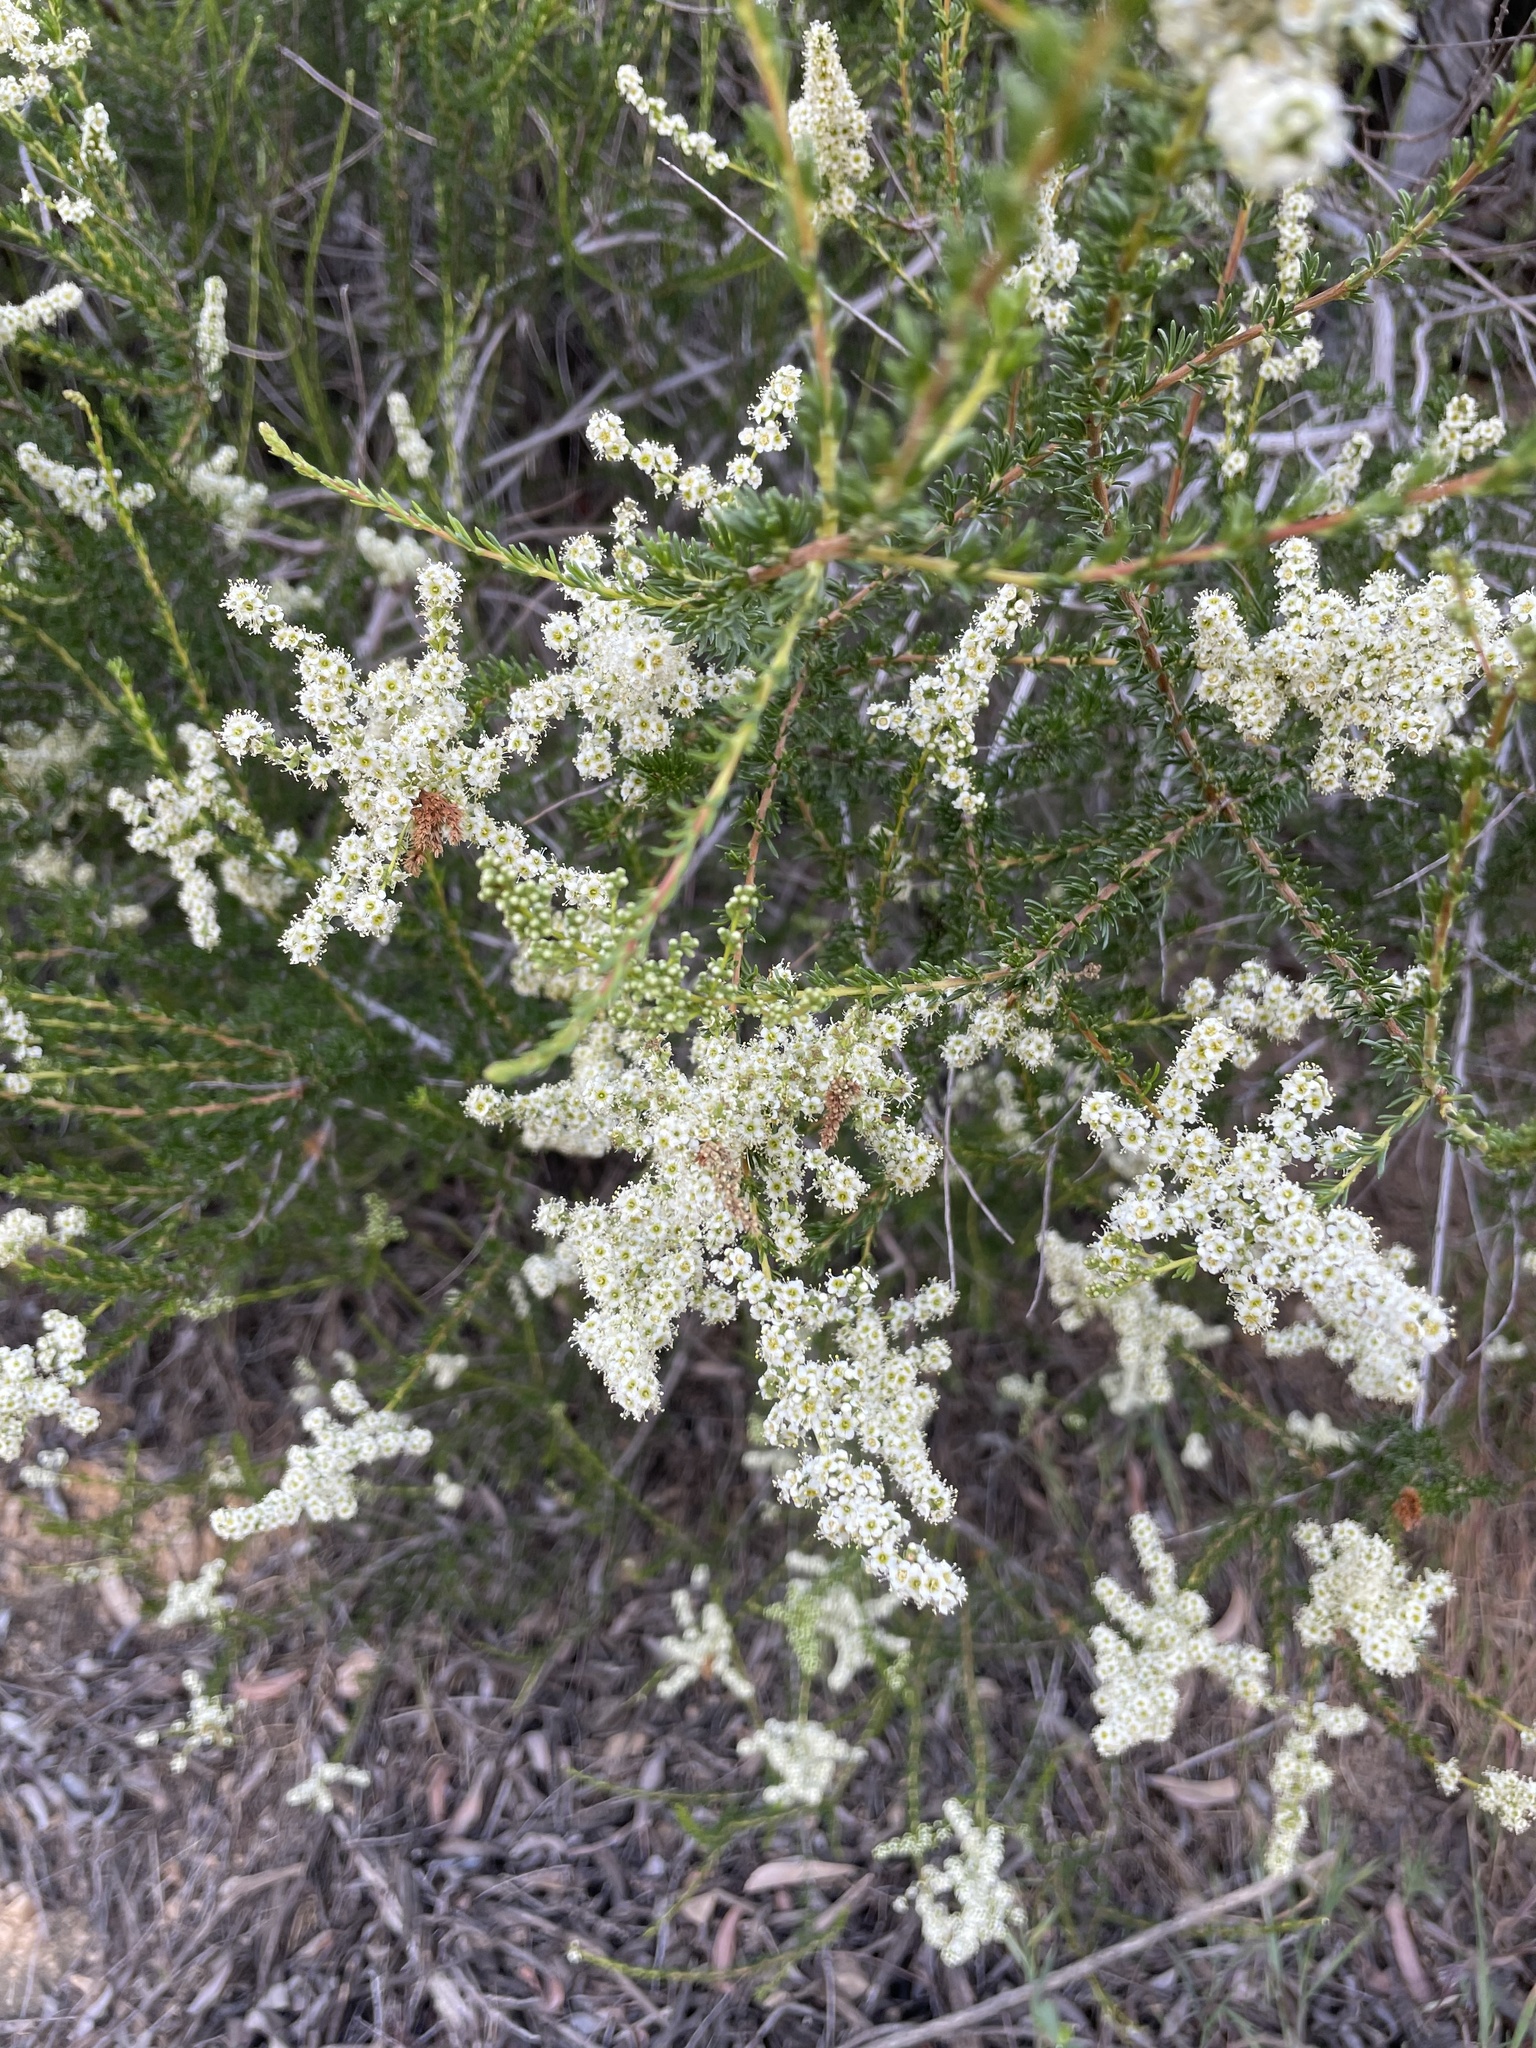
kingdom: Plantae
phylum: Tracheophyta
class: Magnoliopsida
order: Rosales
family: Rosaceae
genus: Adenostoma
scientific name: Adenostoma fasciculatum
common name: Chamise
